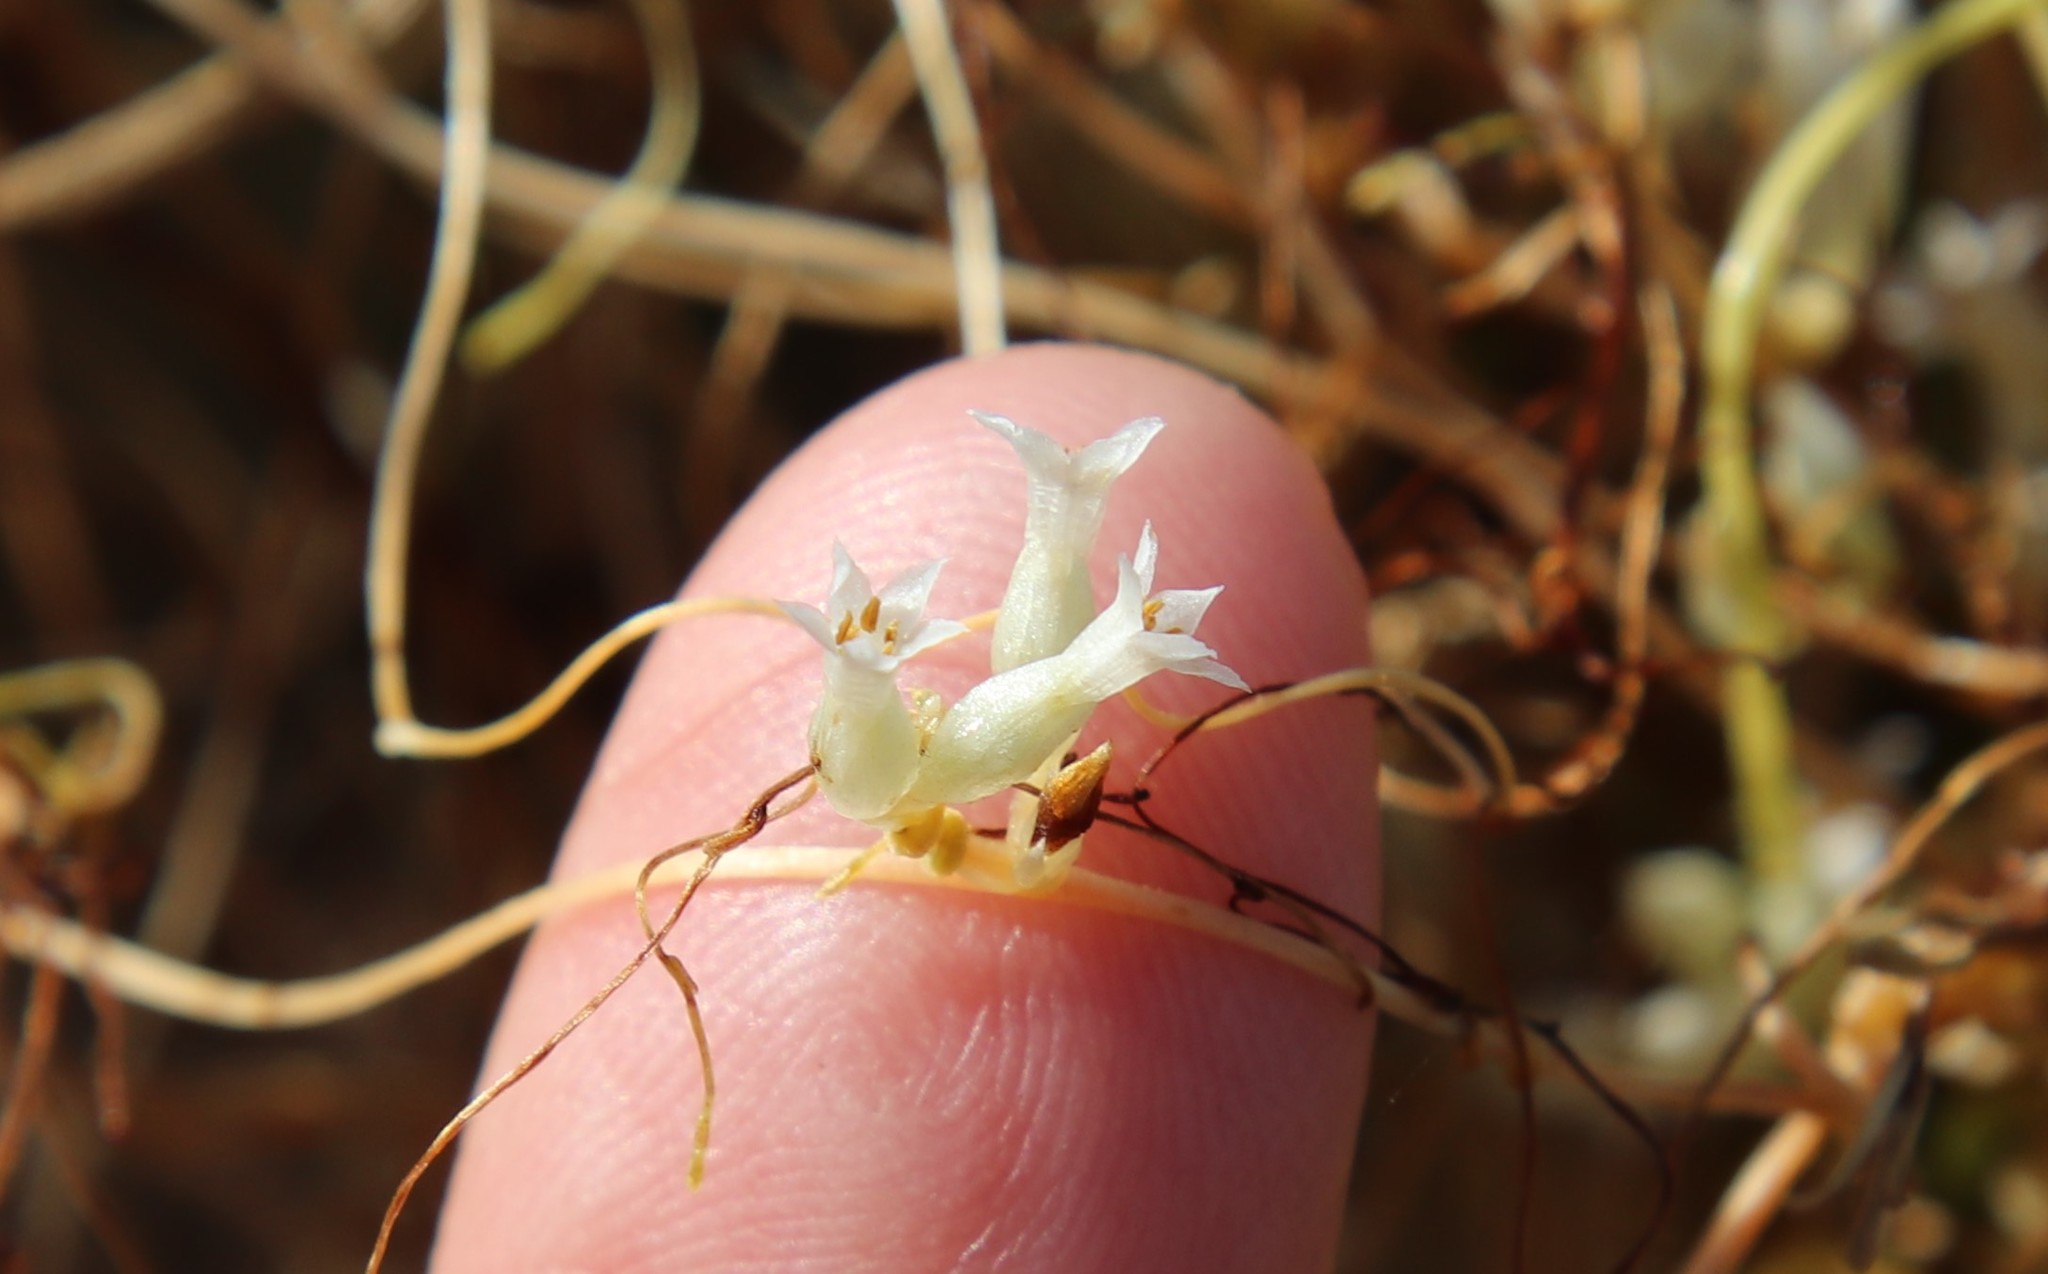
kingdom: Plantae
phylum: Tracheophyta
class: Magnoliopsida
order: Solanales
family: Convolvulaceae
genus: Cuscuta
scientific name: Cuscuta subinclusa
